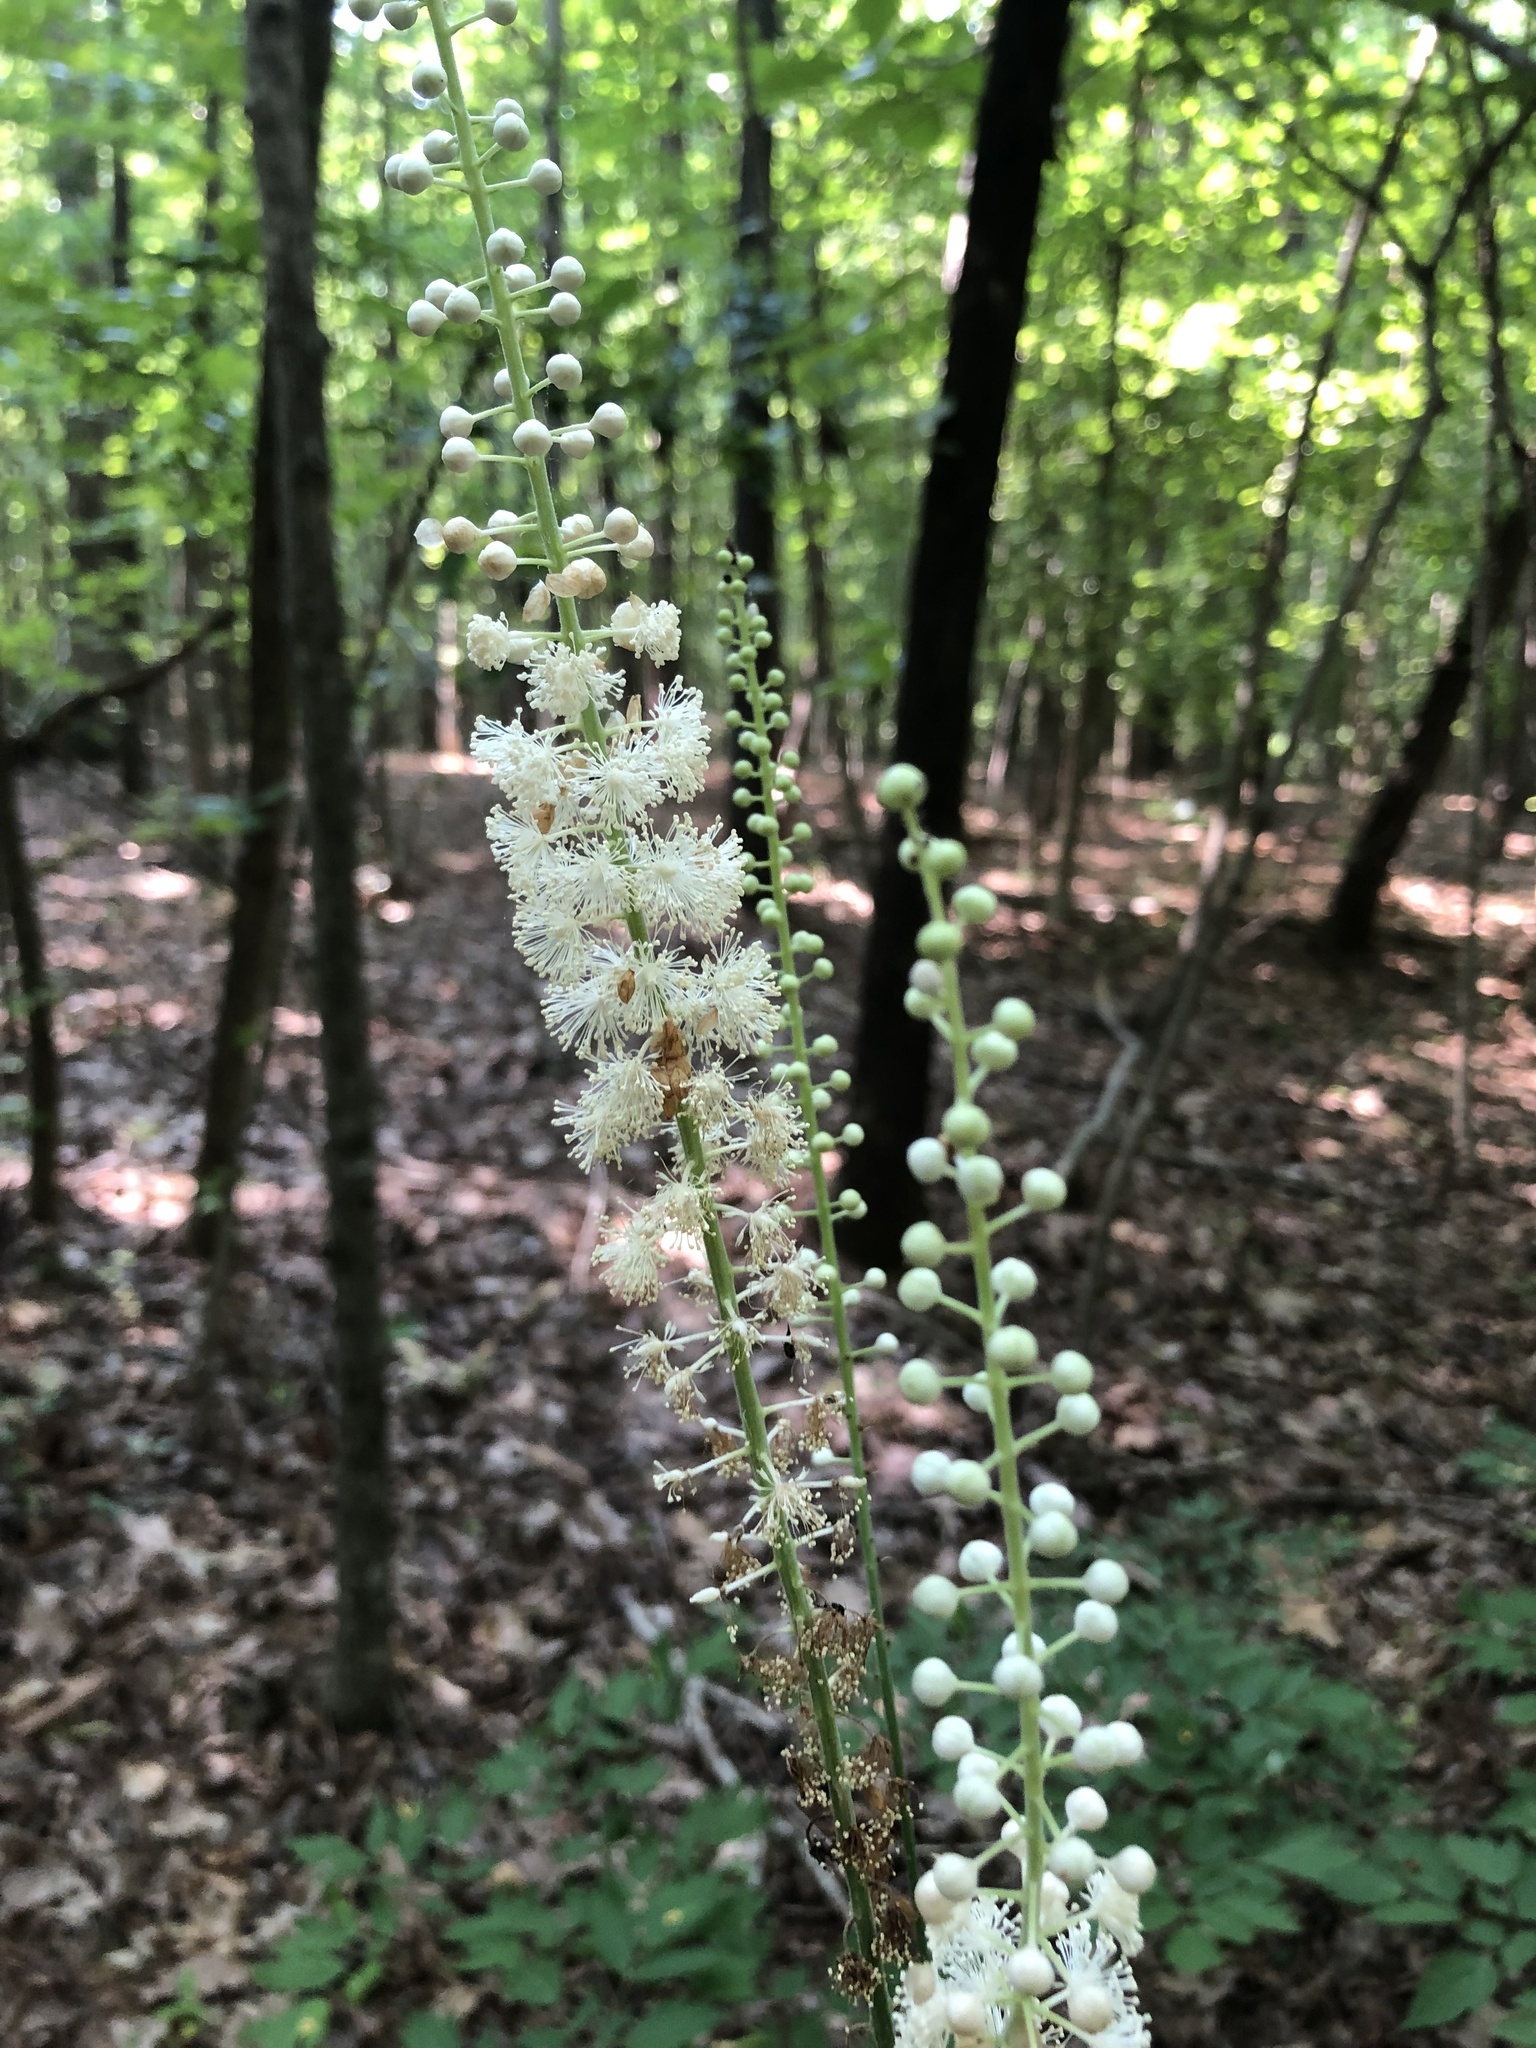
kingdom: Plantae
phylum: Tracheophyta
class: Magnoliopsida
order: Ranunculales
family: Ranunculaceae
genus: Actaea
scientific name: Actaea racemosa
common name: Black cohosh
